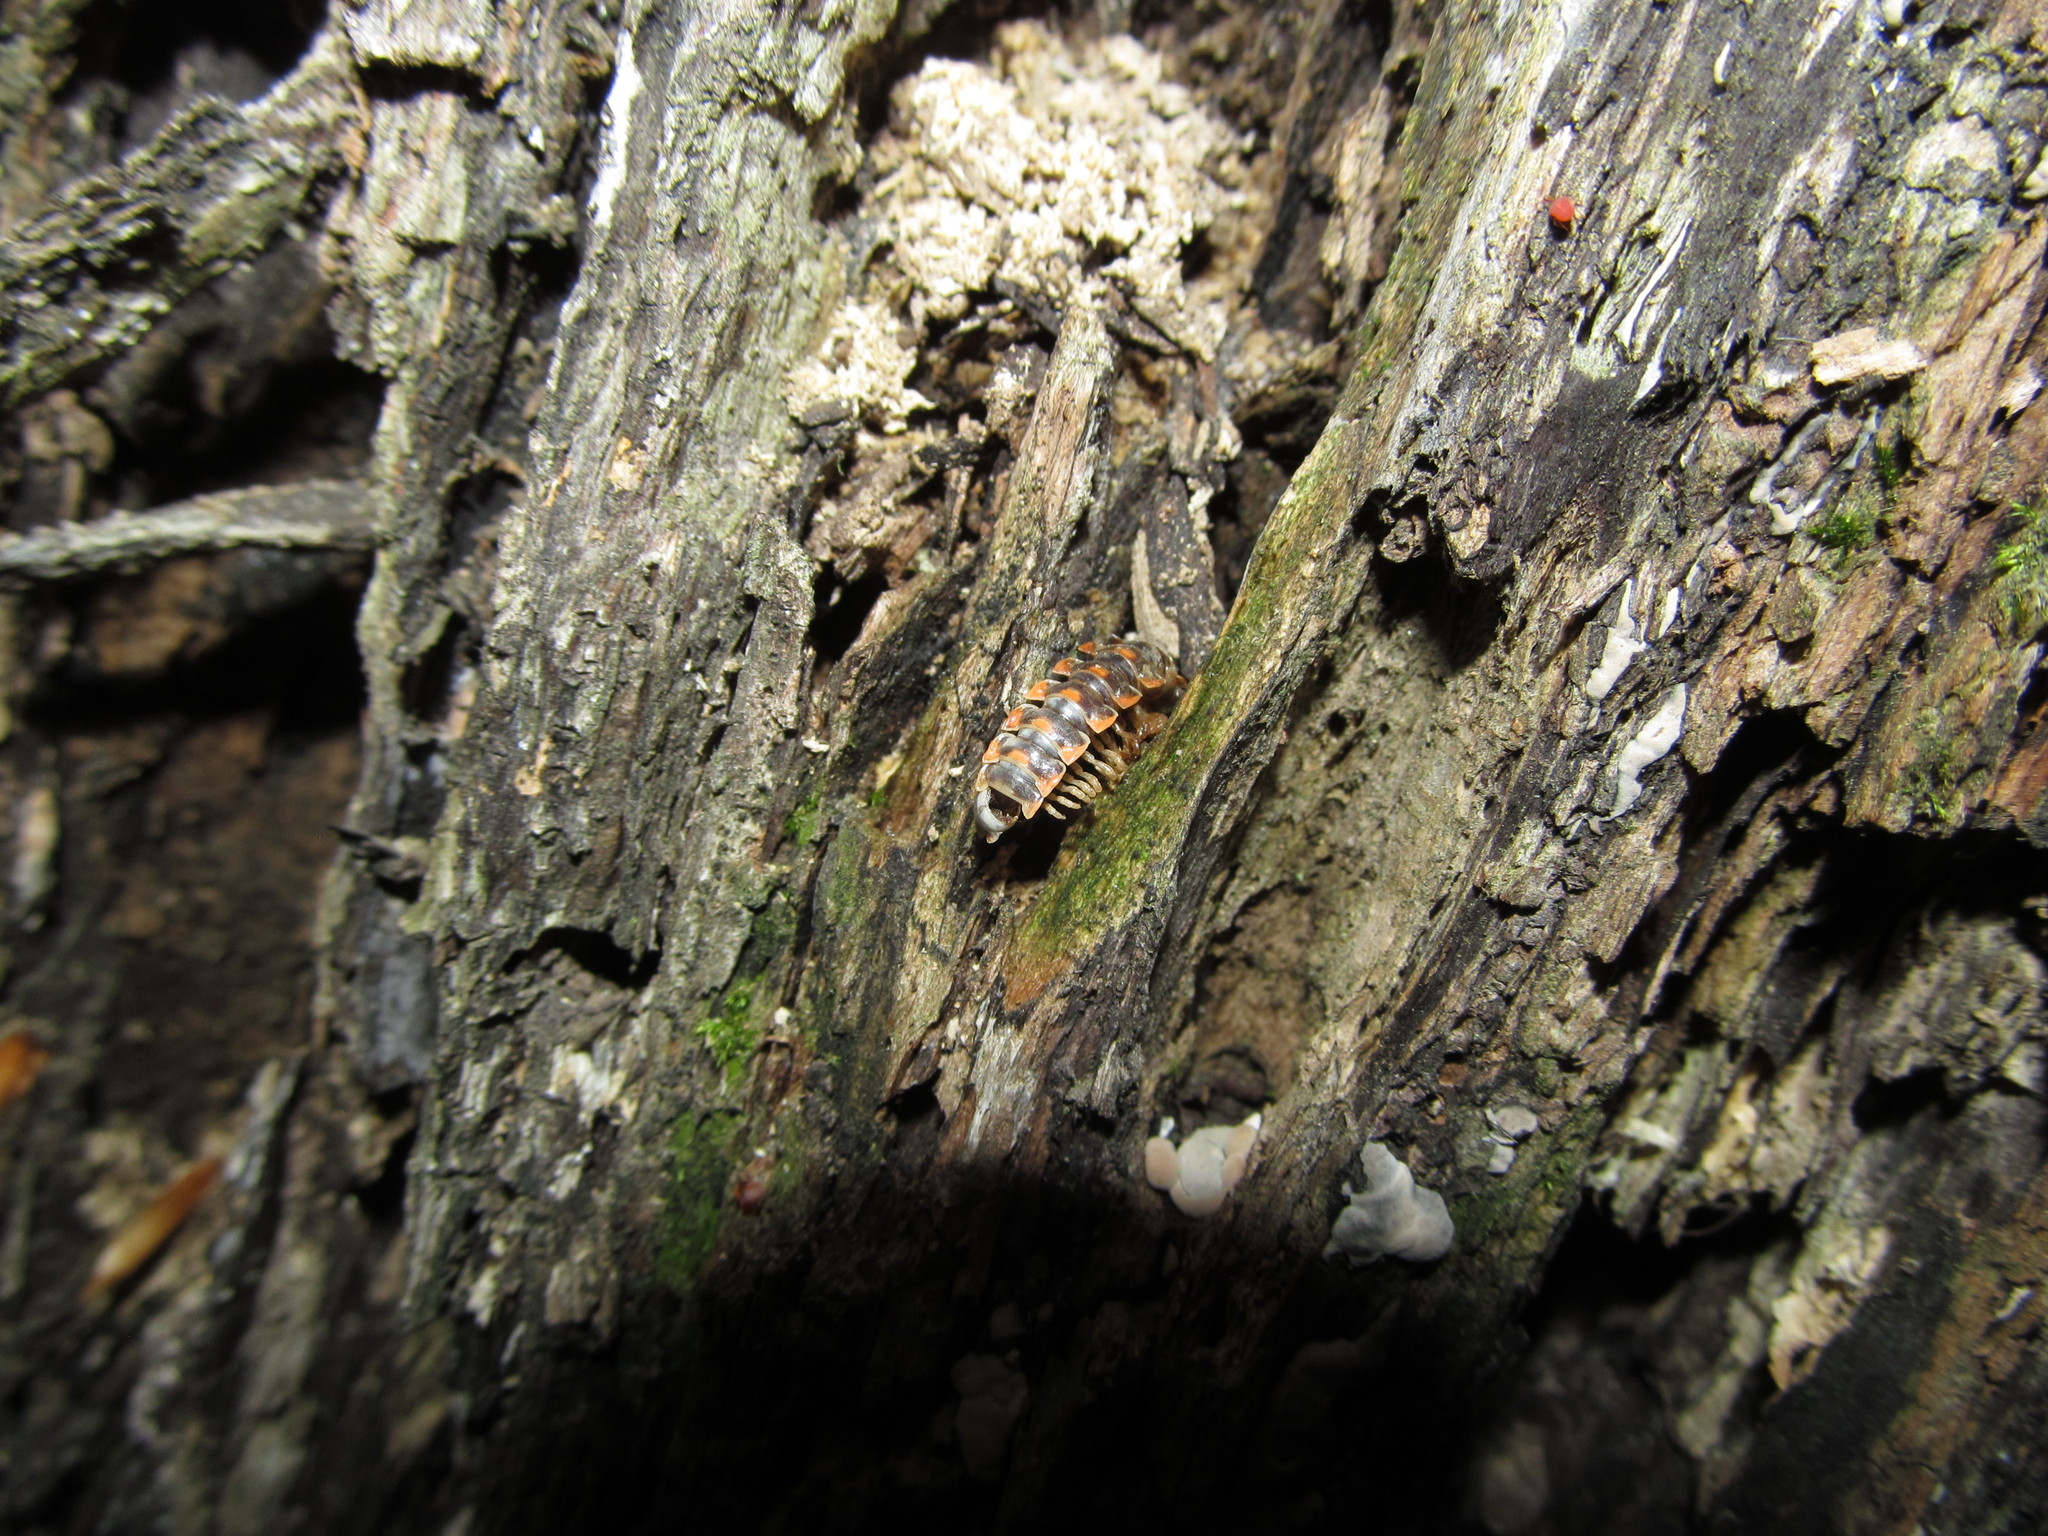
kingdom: Animalia
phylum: Arthropoda
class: Diplopoda
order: Polydesmida
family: Xystodesmidae
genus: Euryurus
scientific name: Euryurus leachii
